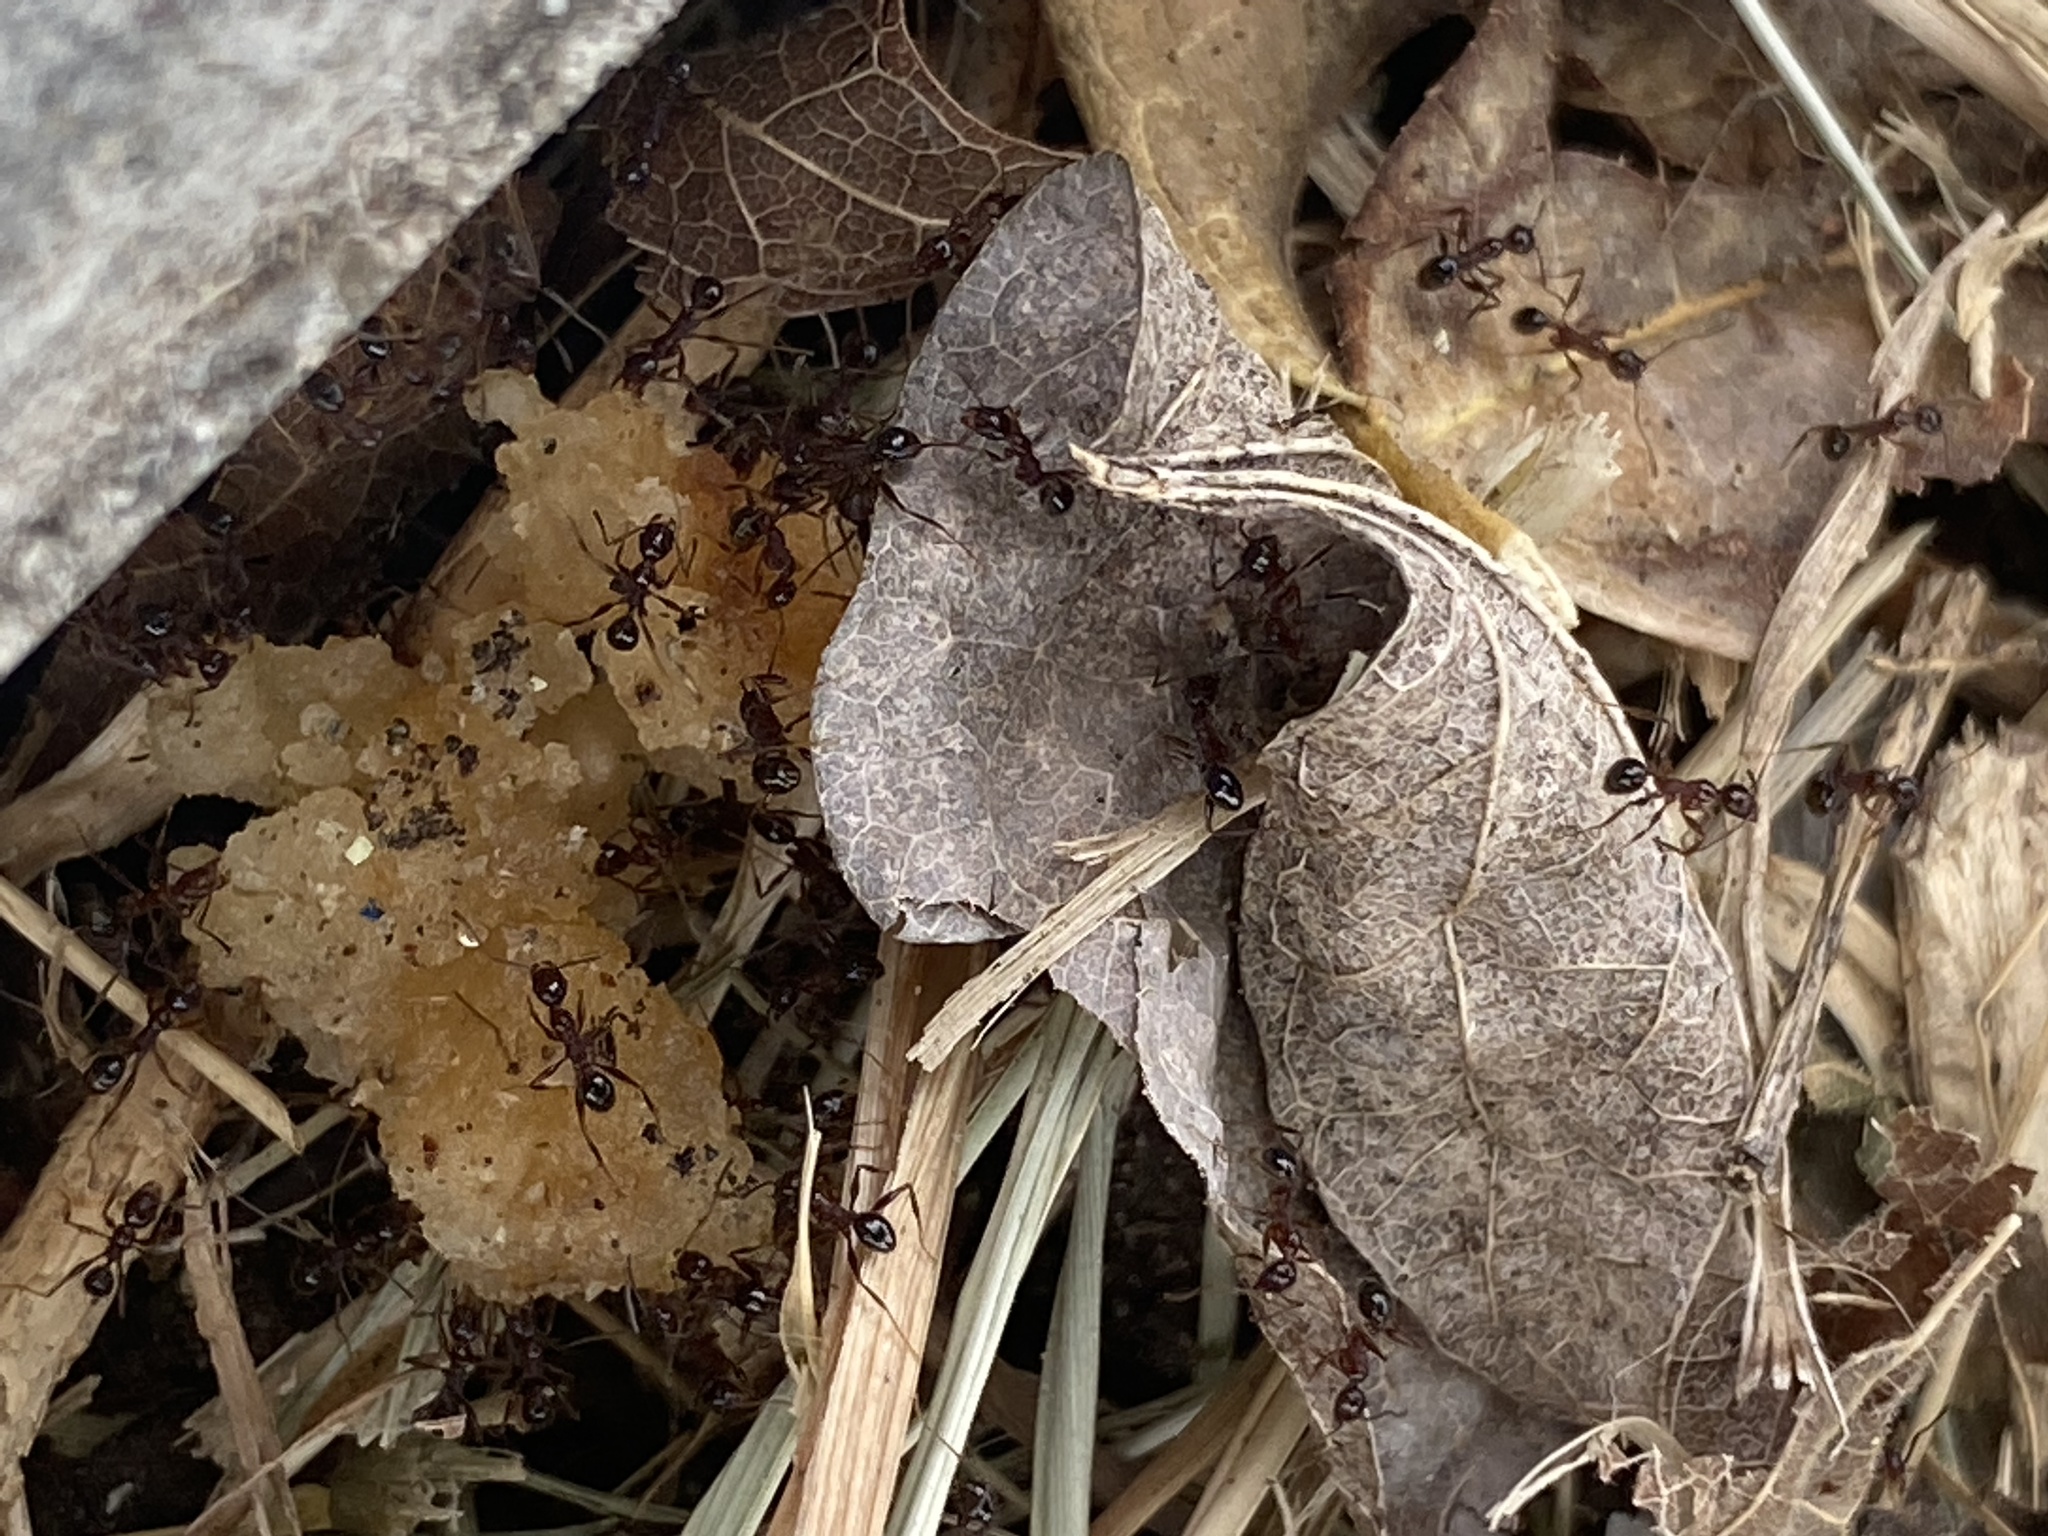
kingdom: Animalia
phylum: Arthropoda
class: Insecta
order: Hymenoptera
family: Formicidae
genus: Pheidole
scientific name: Pheidole obscurithorax
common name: Obscure big-headed ant
